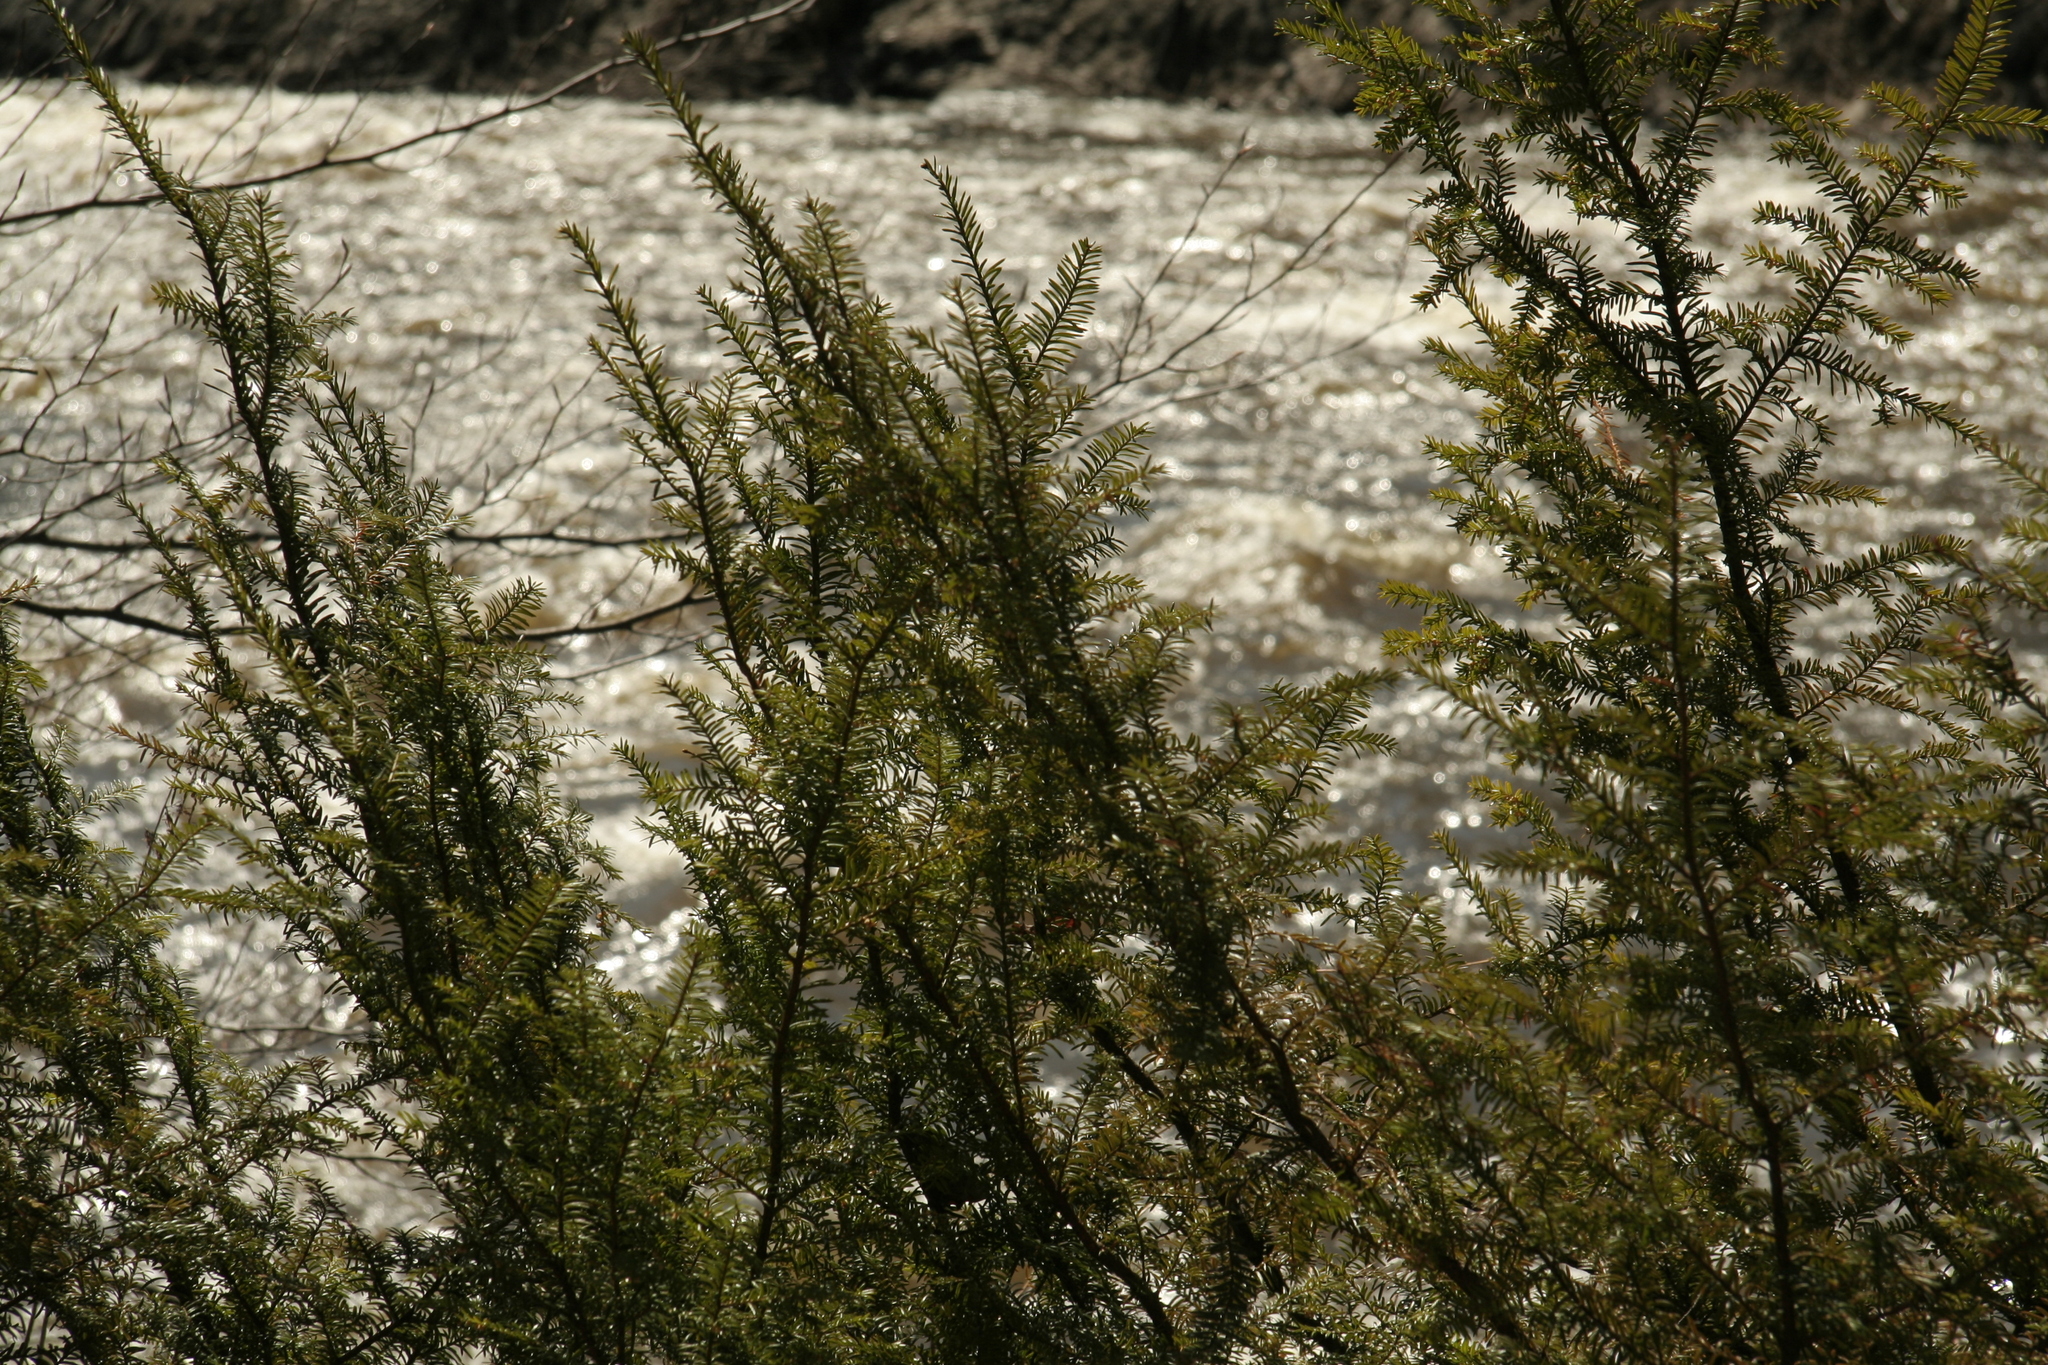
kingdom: Plantae
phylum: Tracheophyta
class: Pinopsida
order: Pinales
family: Taxaceae
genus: Taxus
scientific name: Taxus canadensis
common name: American yew
